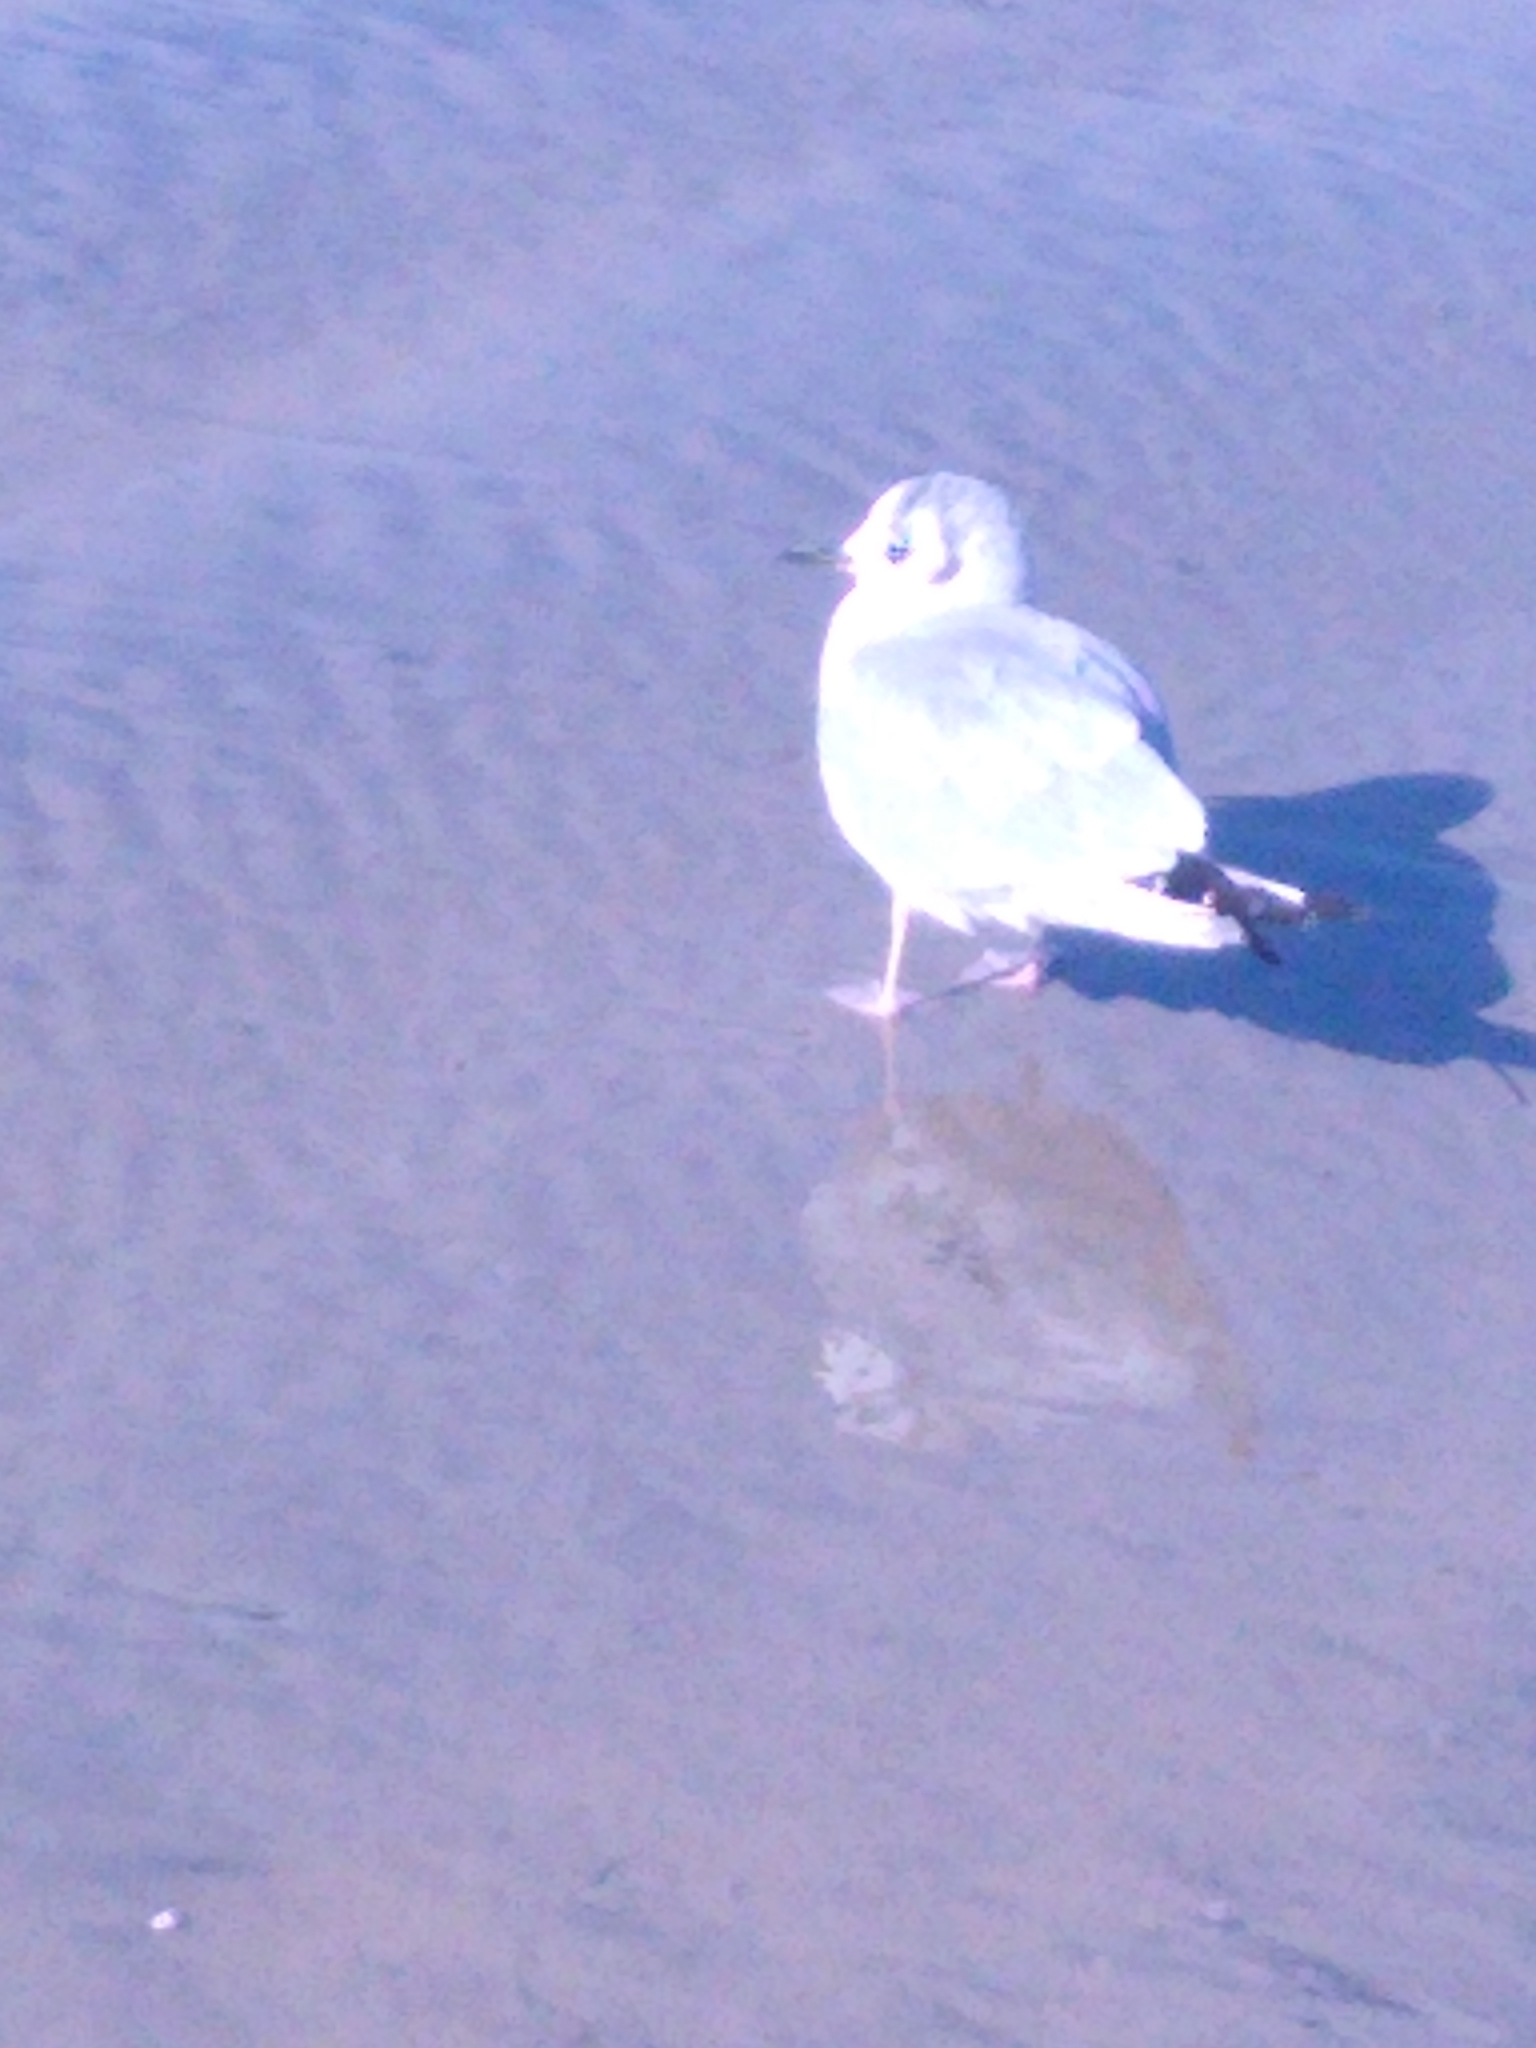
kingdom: Animalia
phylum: Chordata
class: Aves
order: Charadriiformes
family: Laridae
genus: Chroicocephalus
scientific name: Chroicocephalus philadelphia
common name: Bonaparte's gull
